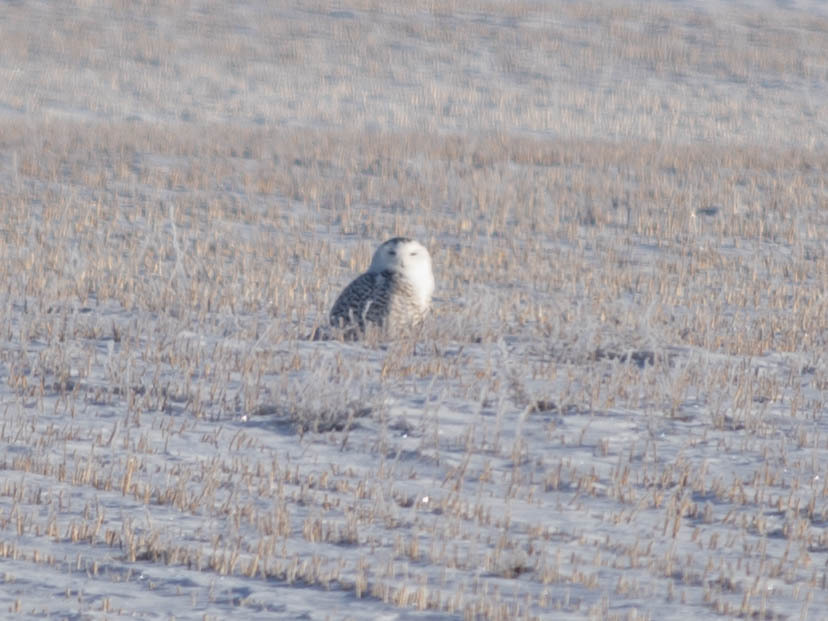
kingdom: Animalia
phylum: Chordata
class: Aves
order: Strigiformes
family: Strigidae
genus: Bubo
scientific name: Bubo scandiacus
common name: Snowy owl
